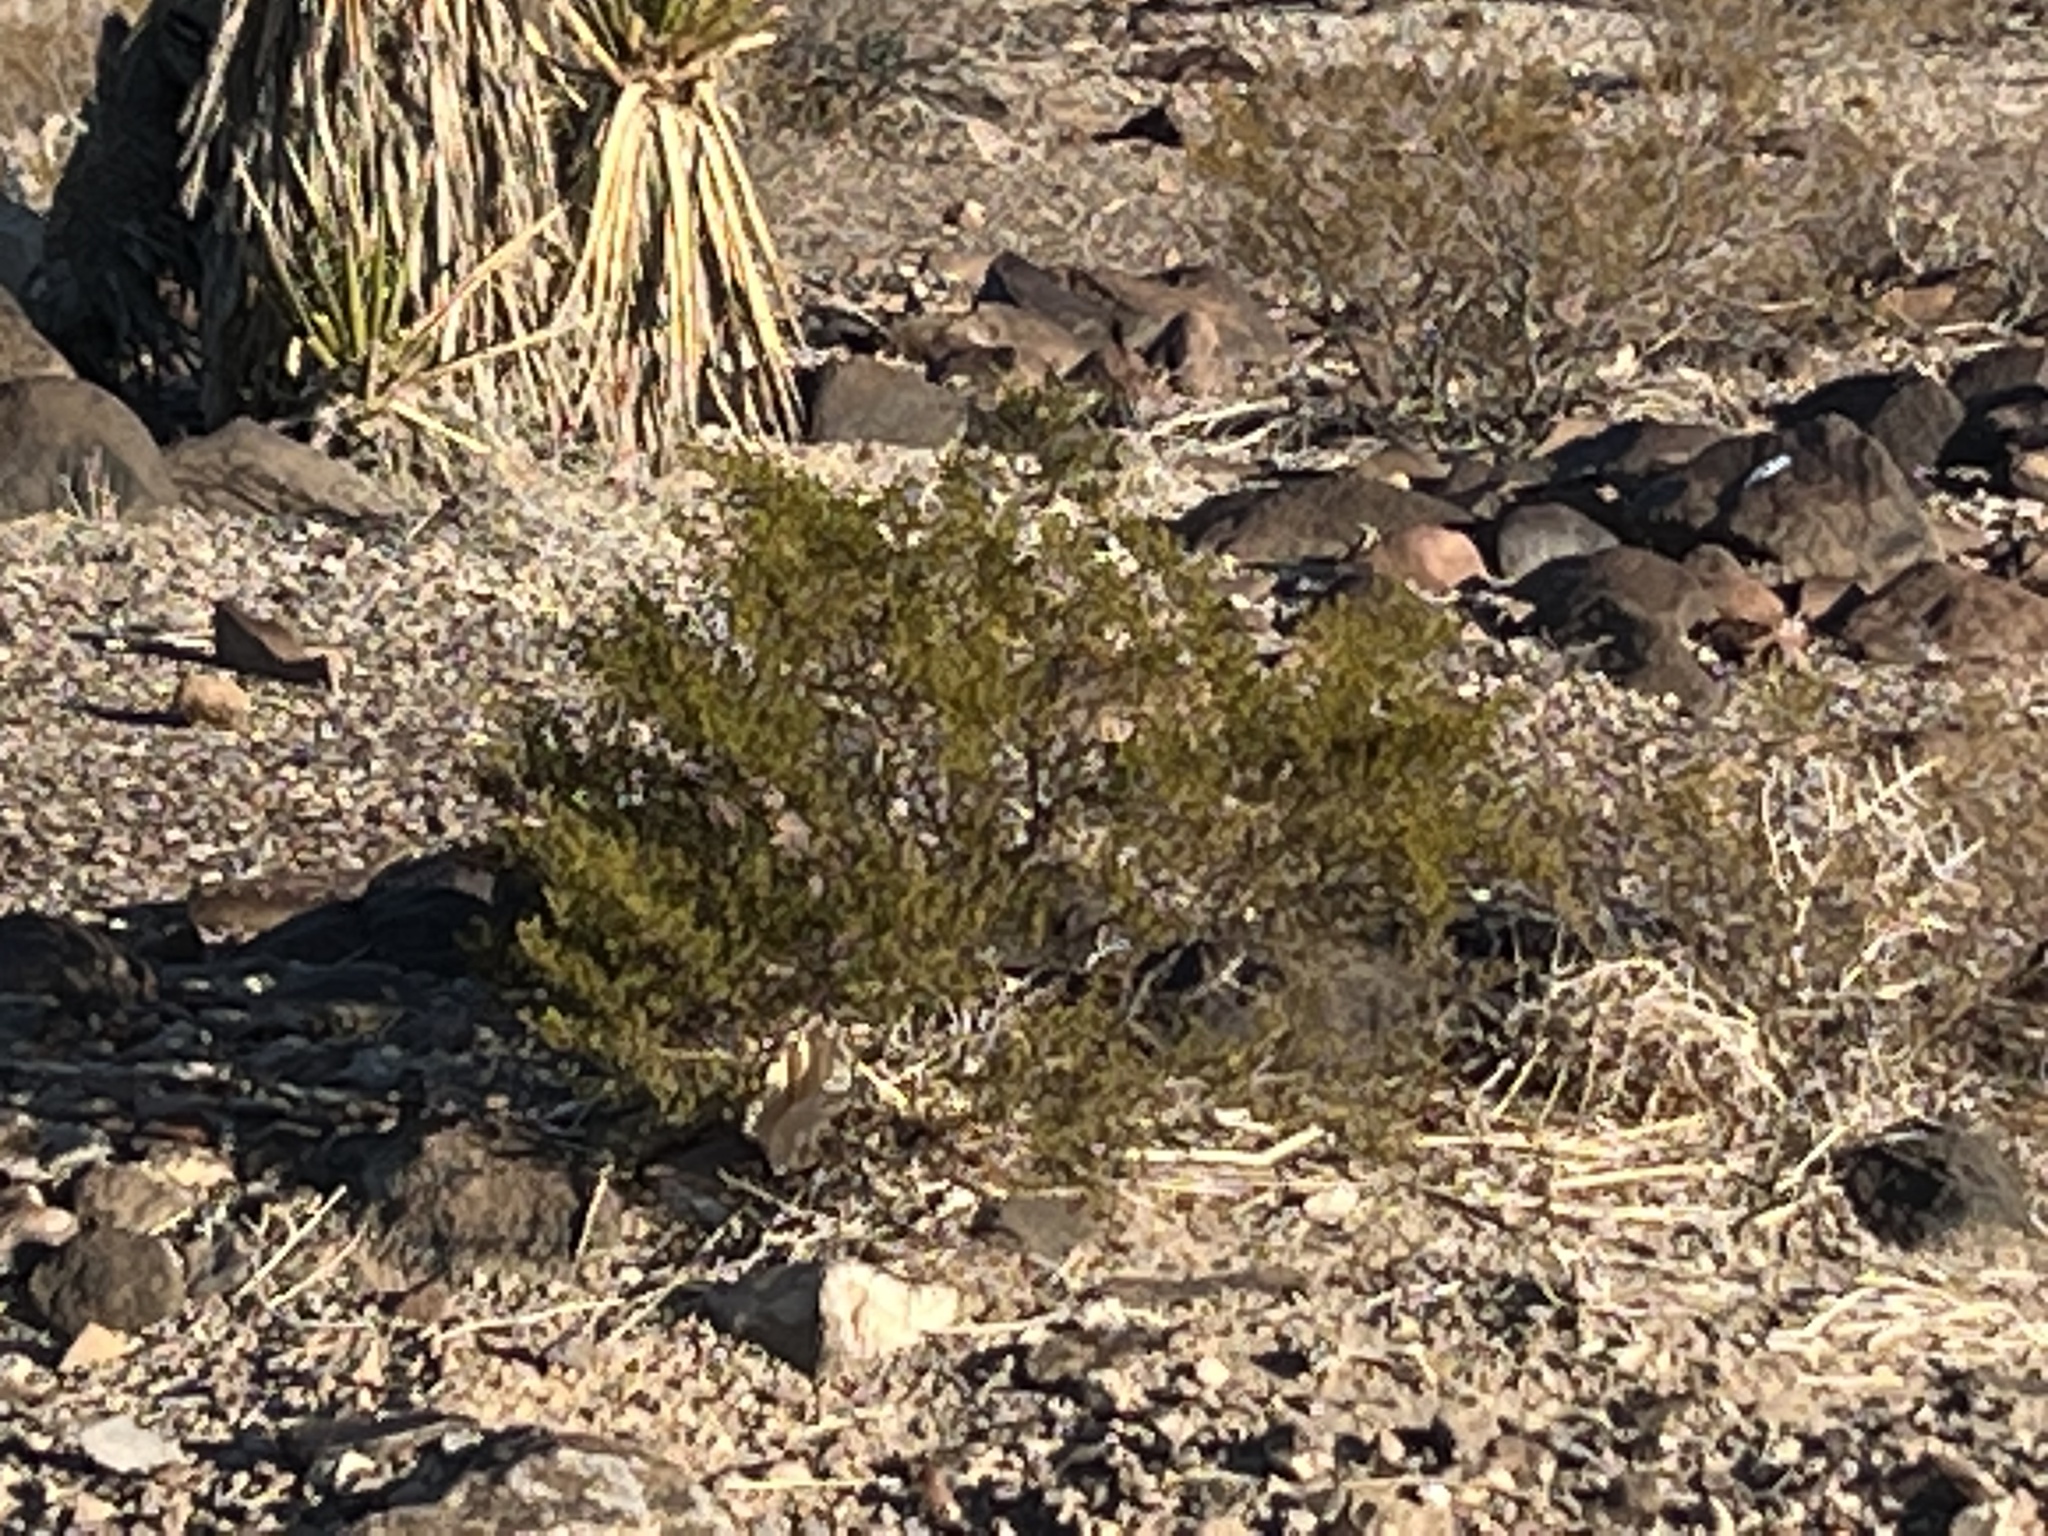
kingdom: Plantae
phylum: Tracheophyta
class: Magnoliopsida
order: Zygophyllales
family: Zygophyllaceae
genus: Larrea
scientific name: Larrea tridentata
